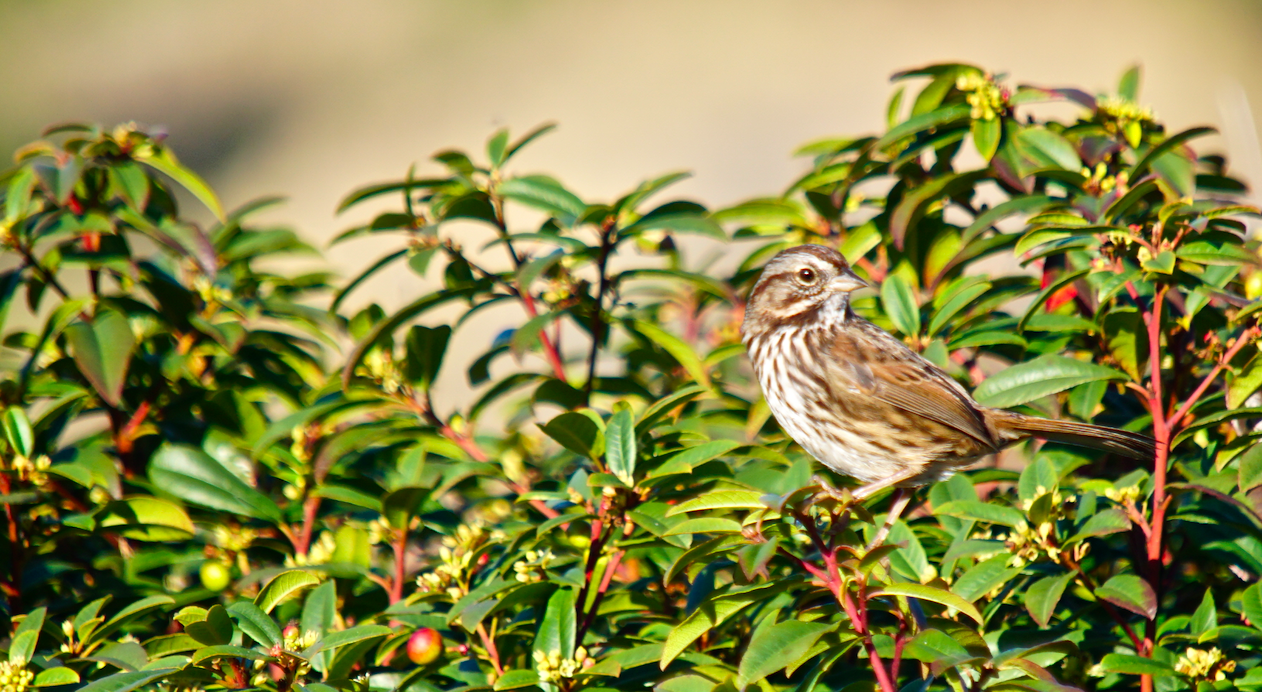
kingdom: Animalia
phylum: Chordata
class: Aves
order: Passeriformes
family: Passerellidae
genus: Melospiza
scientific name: Melospiza melodia
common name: Song sparrow
